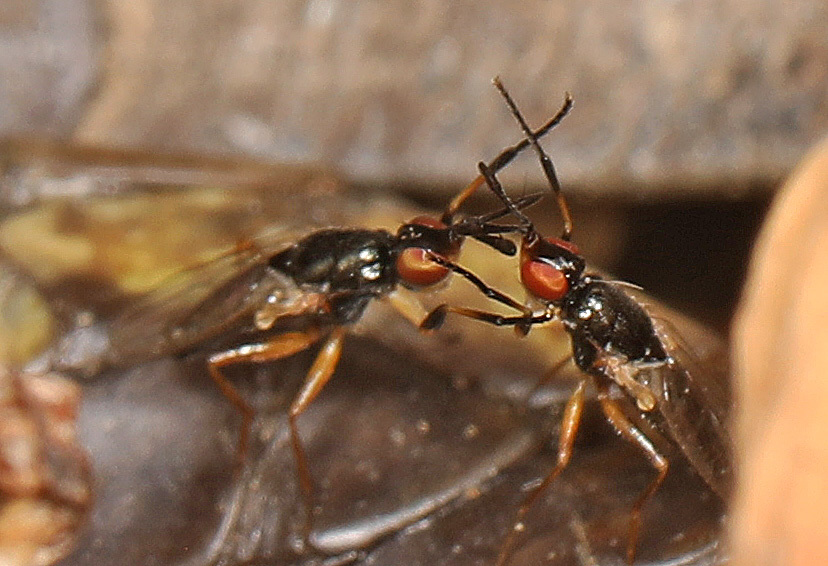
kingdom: Animalia
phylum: Arthropoda
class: Insecta
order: Diptera
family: Piophilidae
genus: Prochyliza
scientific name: Prochyliza xanthostoma
